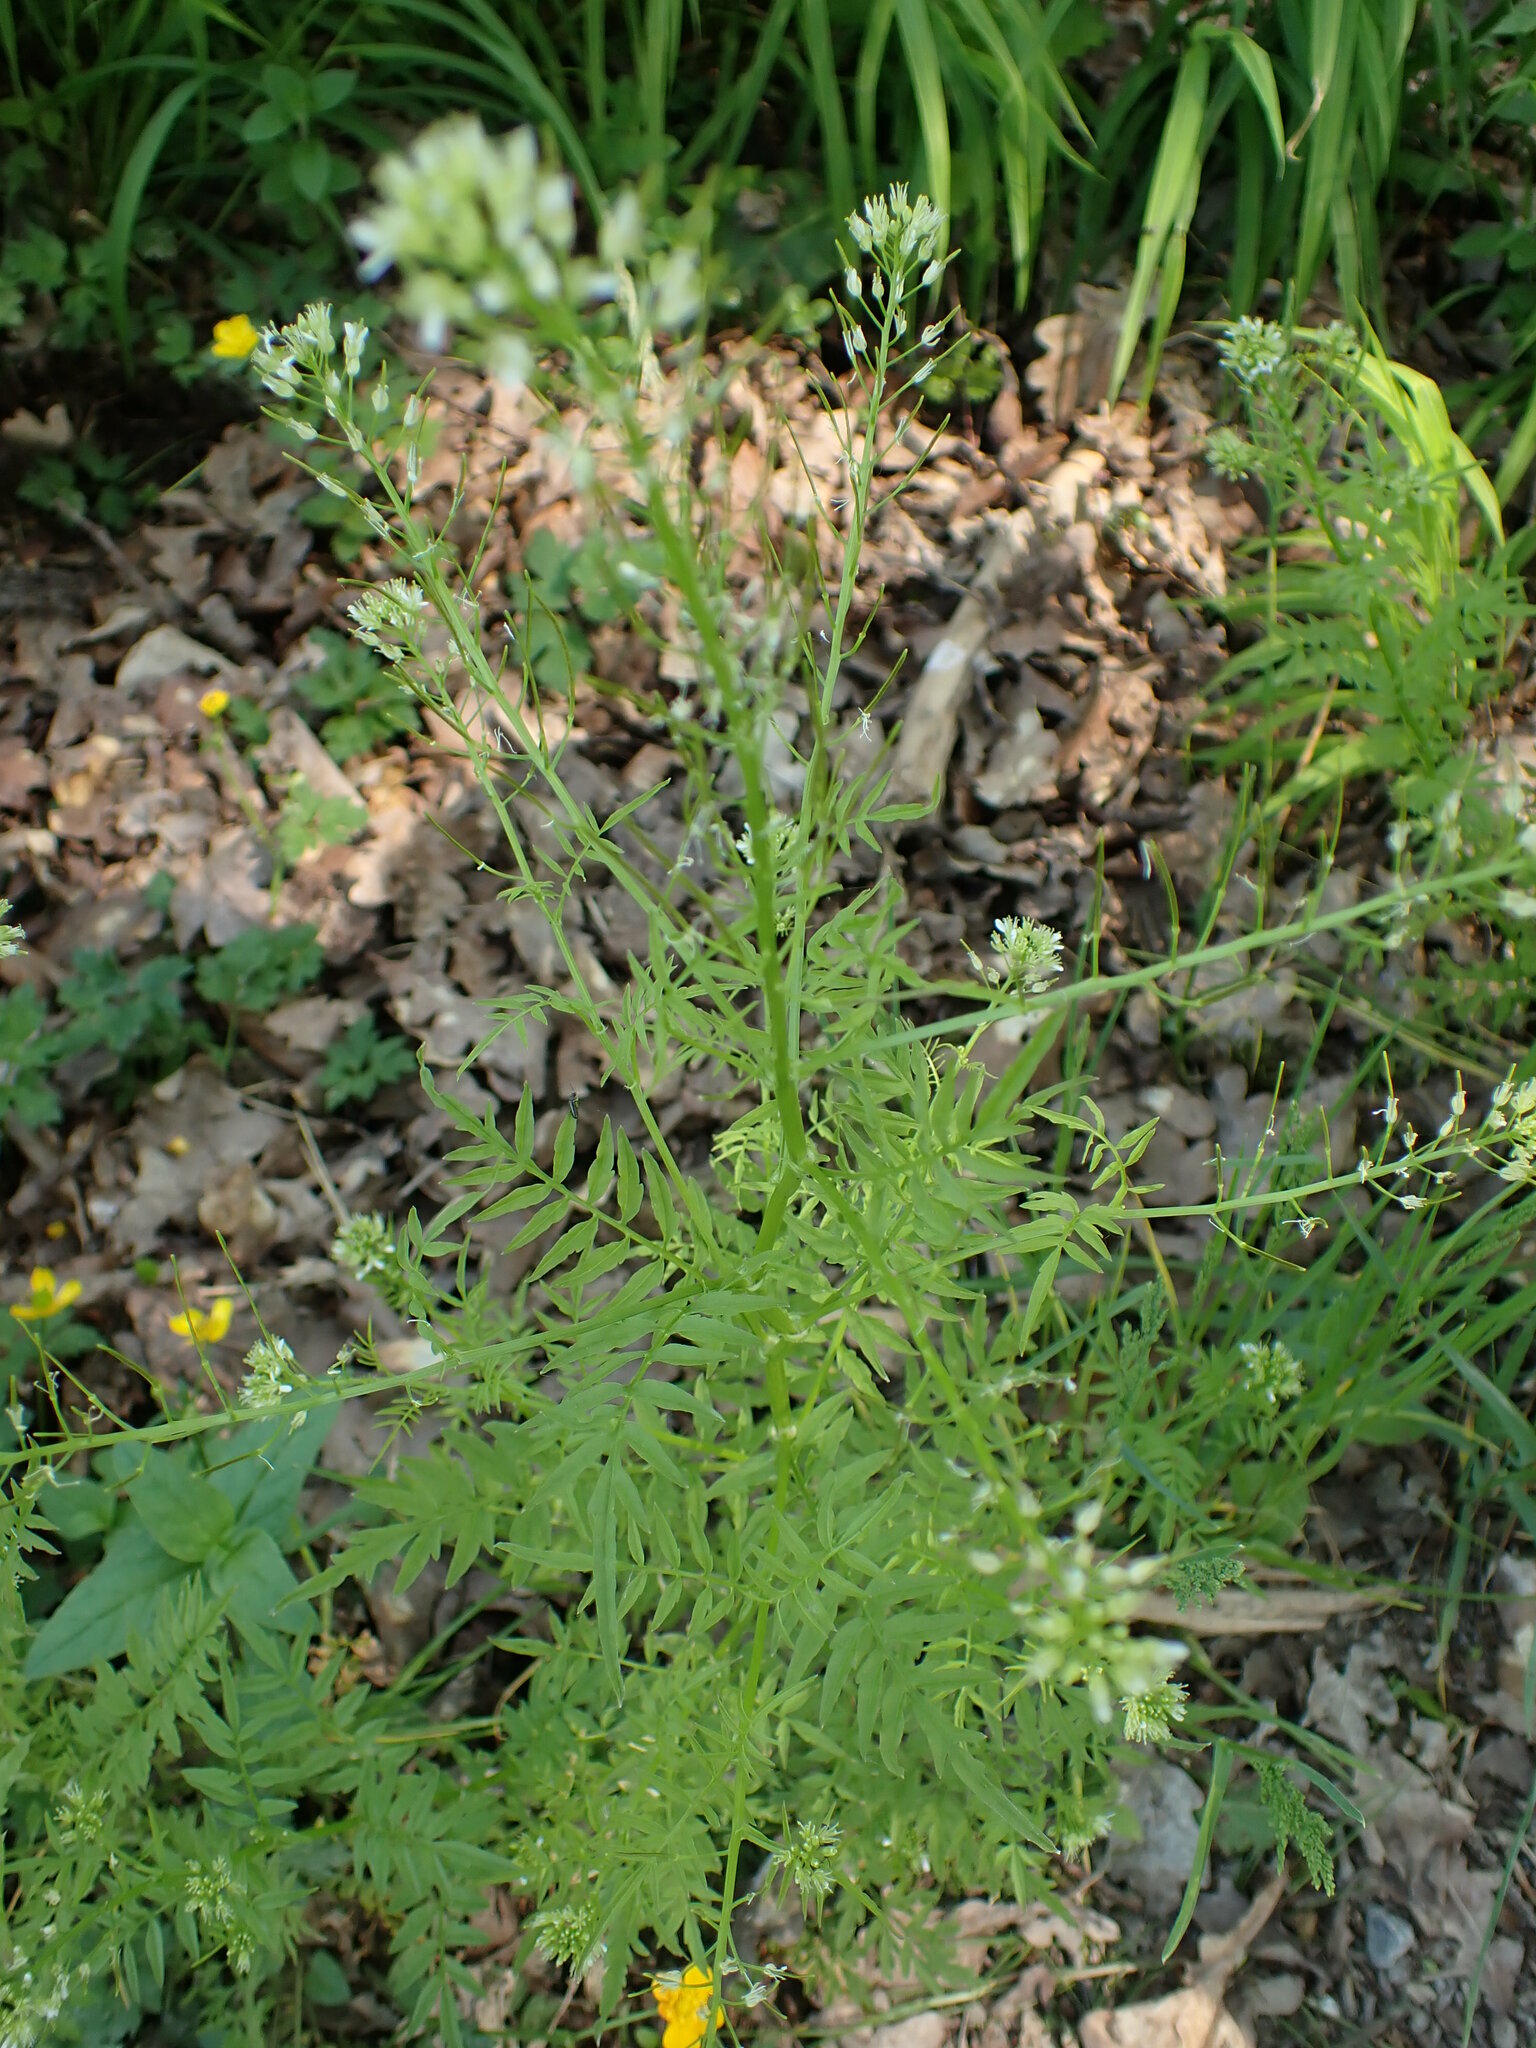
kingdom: Plantae
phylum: Tracheophyta
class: Magnoliopsida
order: Brassicales
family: Brassicaceae
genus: Cardamine
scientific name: Cardamine impatiens
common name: Narrow-leaved bitter-cress
